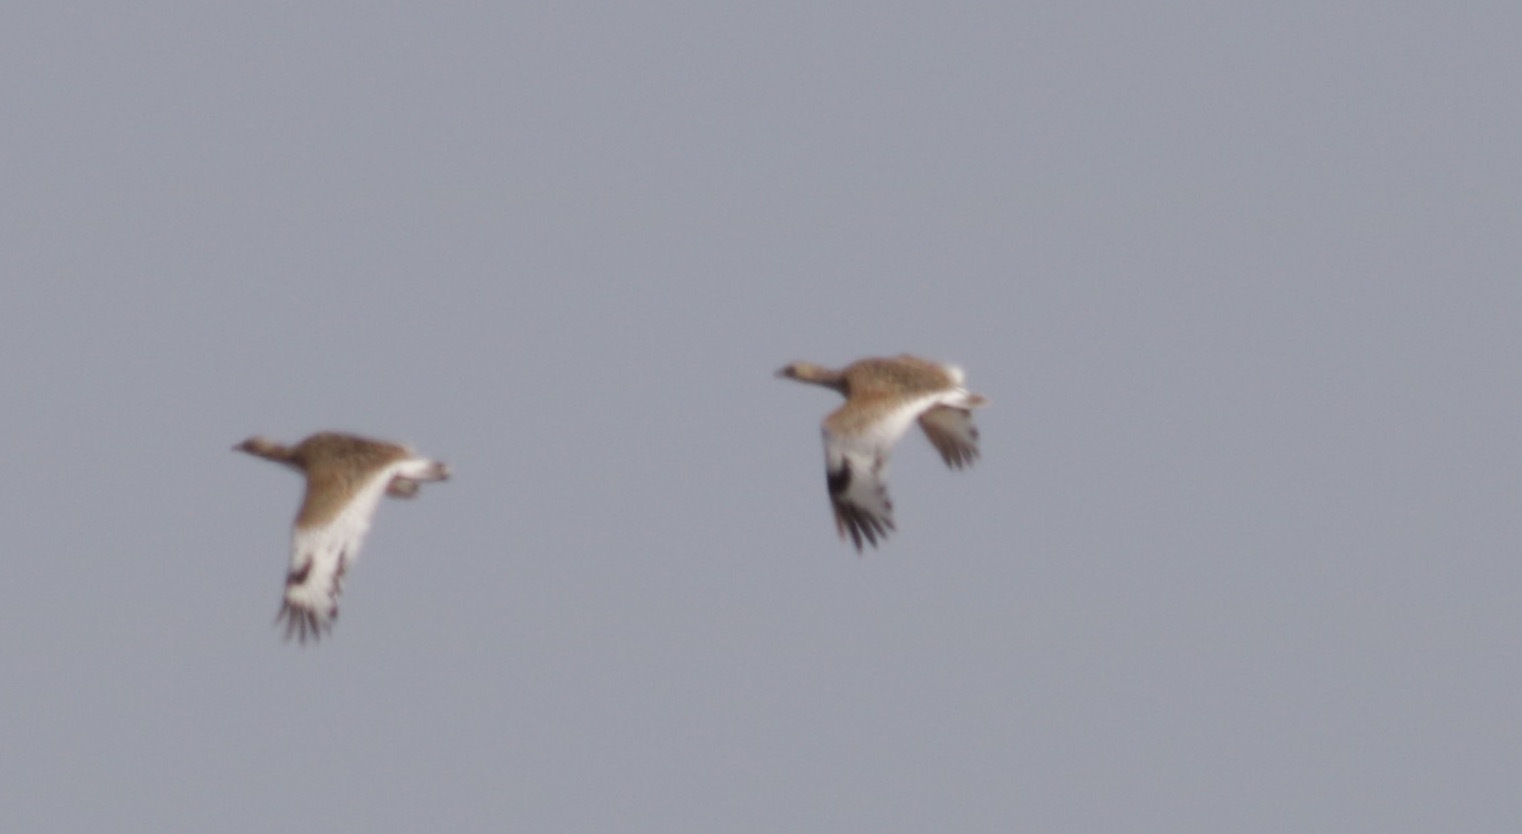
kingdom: Animalia
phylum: Chordata
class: Aves
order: Otidiformes
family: Otididae
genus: Tetrax
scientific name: Tetrax tetrax
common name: Little bustard
